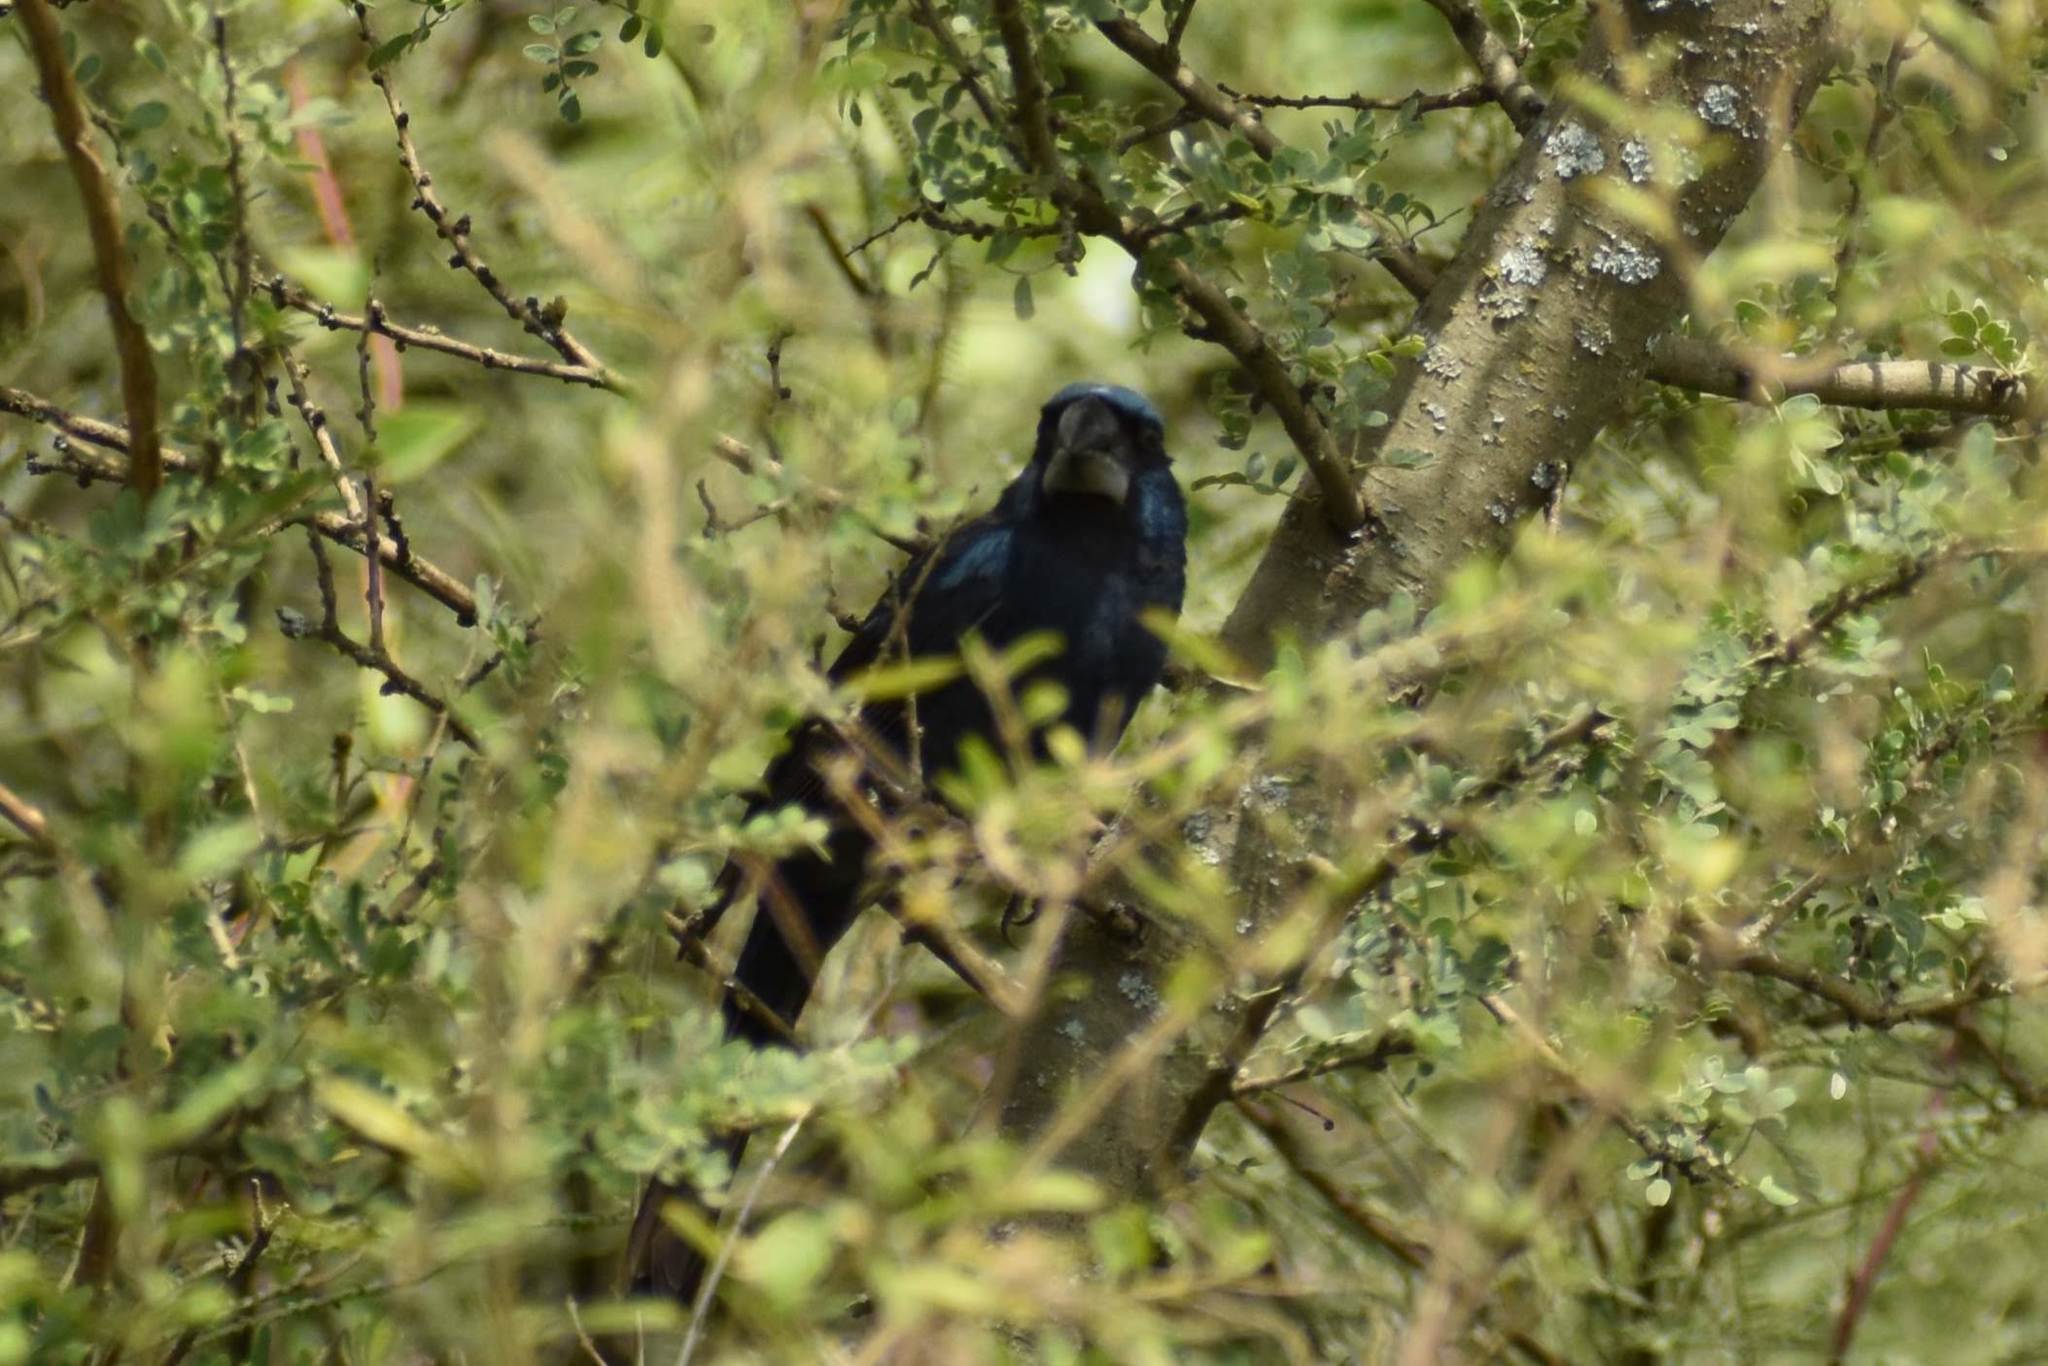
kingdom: Animalia
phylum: Chordata
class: Aves
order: Passeriformes
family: Cardinalidae
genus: Cyanoloxia
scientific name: Cyanoloxia brissonii
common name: Ultramarine grosbeak
